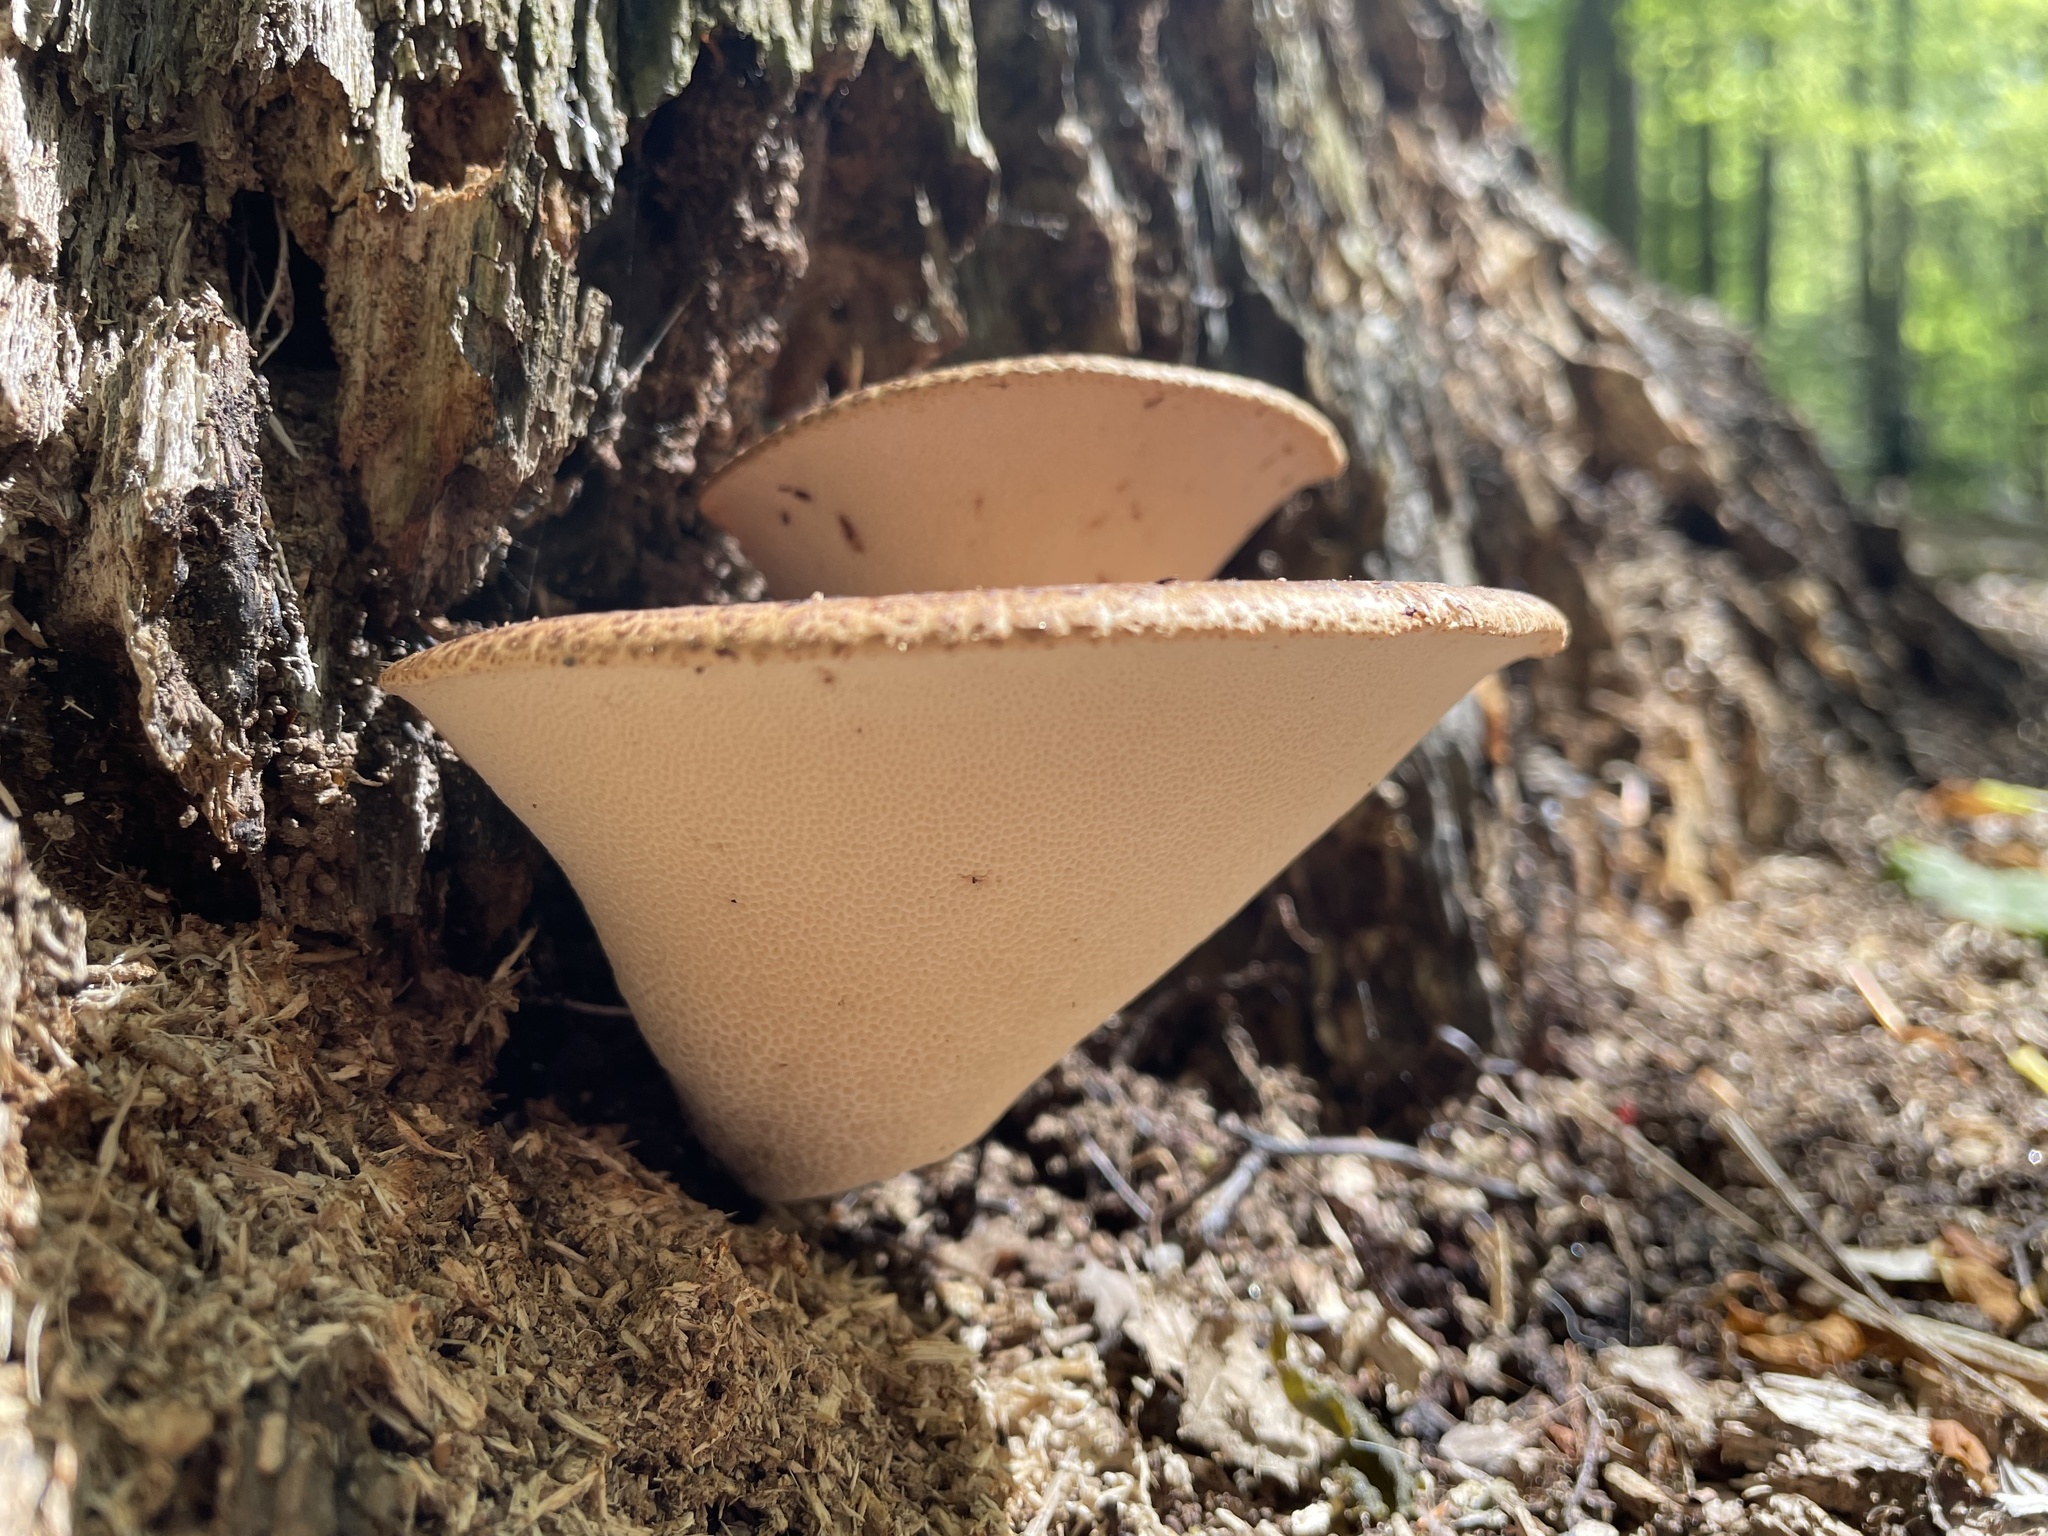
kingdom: Fungi
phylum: Basidiomycota
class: Agaricomycetes
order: Polyporales
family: Polyporaceae
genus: Cerioporus
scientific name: Cerioporus squamosus
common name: Dryad's saddle
